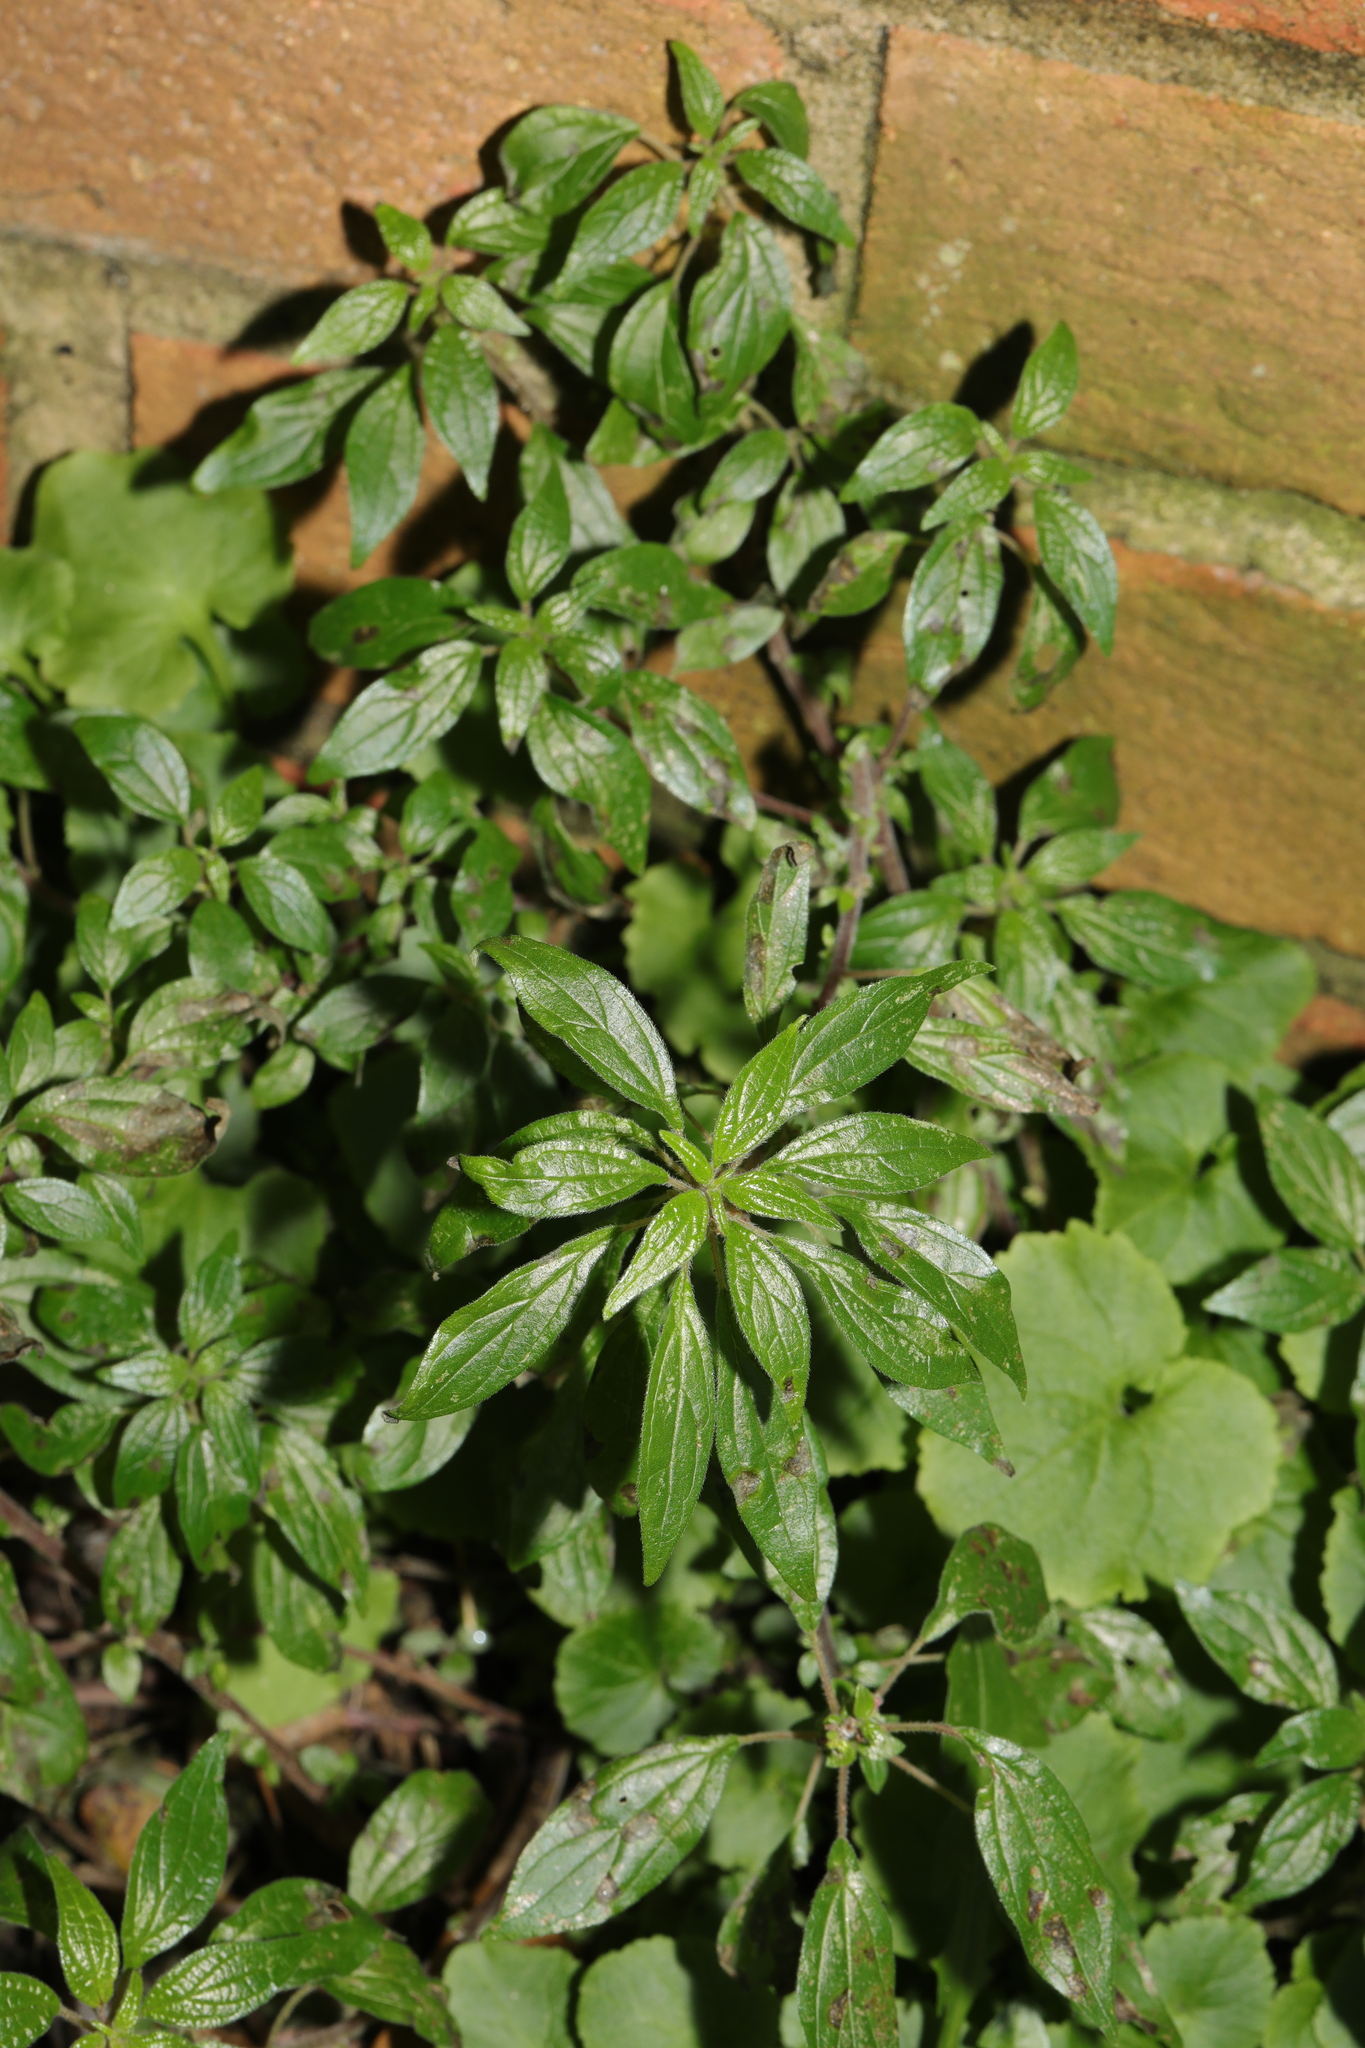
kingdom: Plantae
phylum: Tracheophyta
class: Magnoliopsida
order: Rosales
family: Urticaceae
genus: Parietaria
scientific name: Parietaria judaica
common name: Pellitory-of-the-wall
